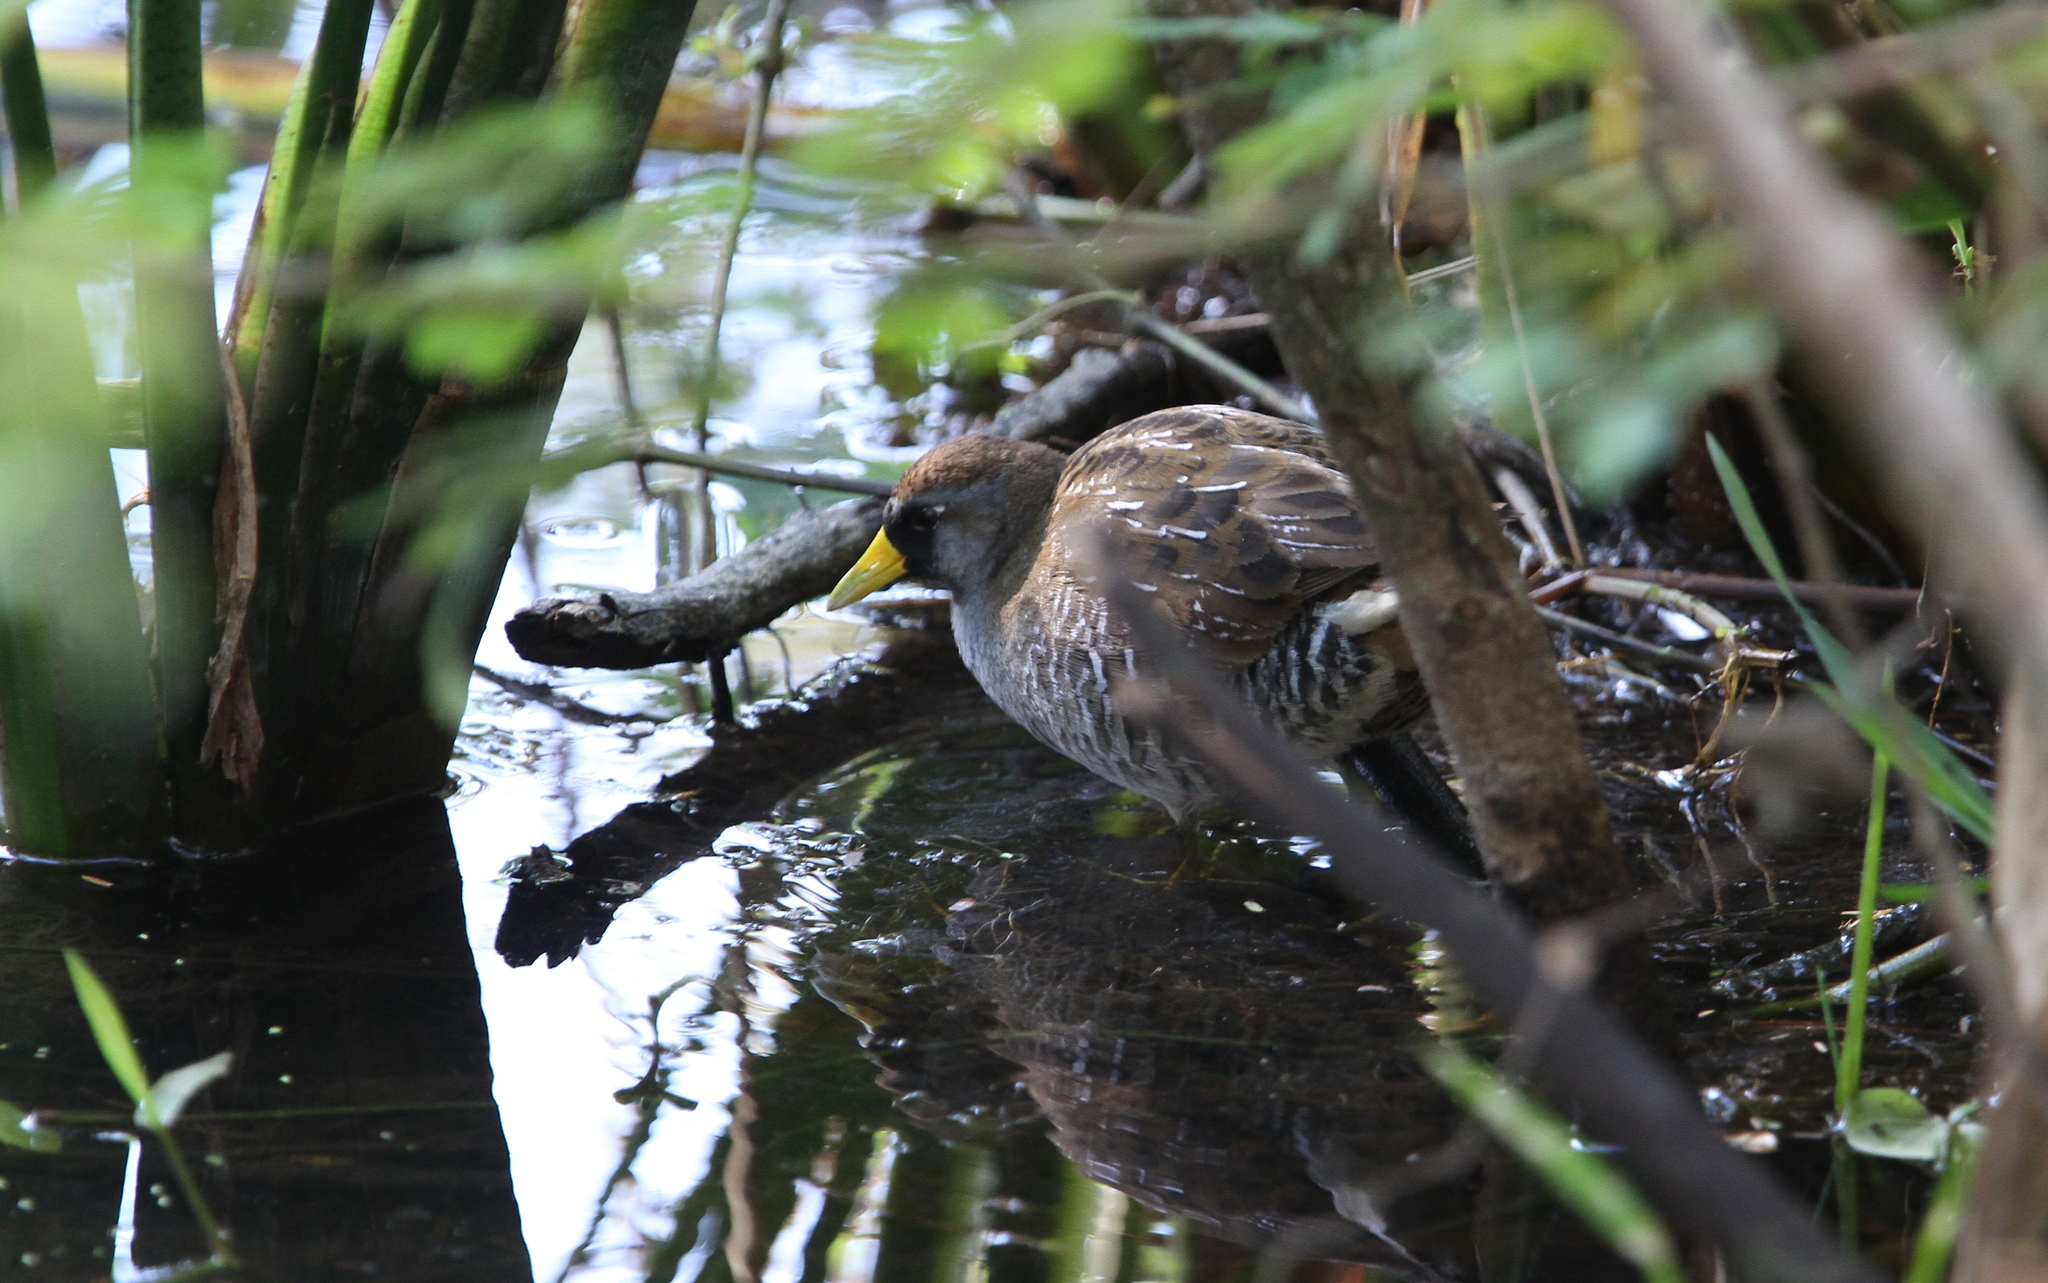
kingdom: Animalia
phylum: Chordata
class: Aves
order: Gruiformes
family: Rallidae
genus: Porzana
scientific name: Porzana carolina
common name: Sora
